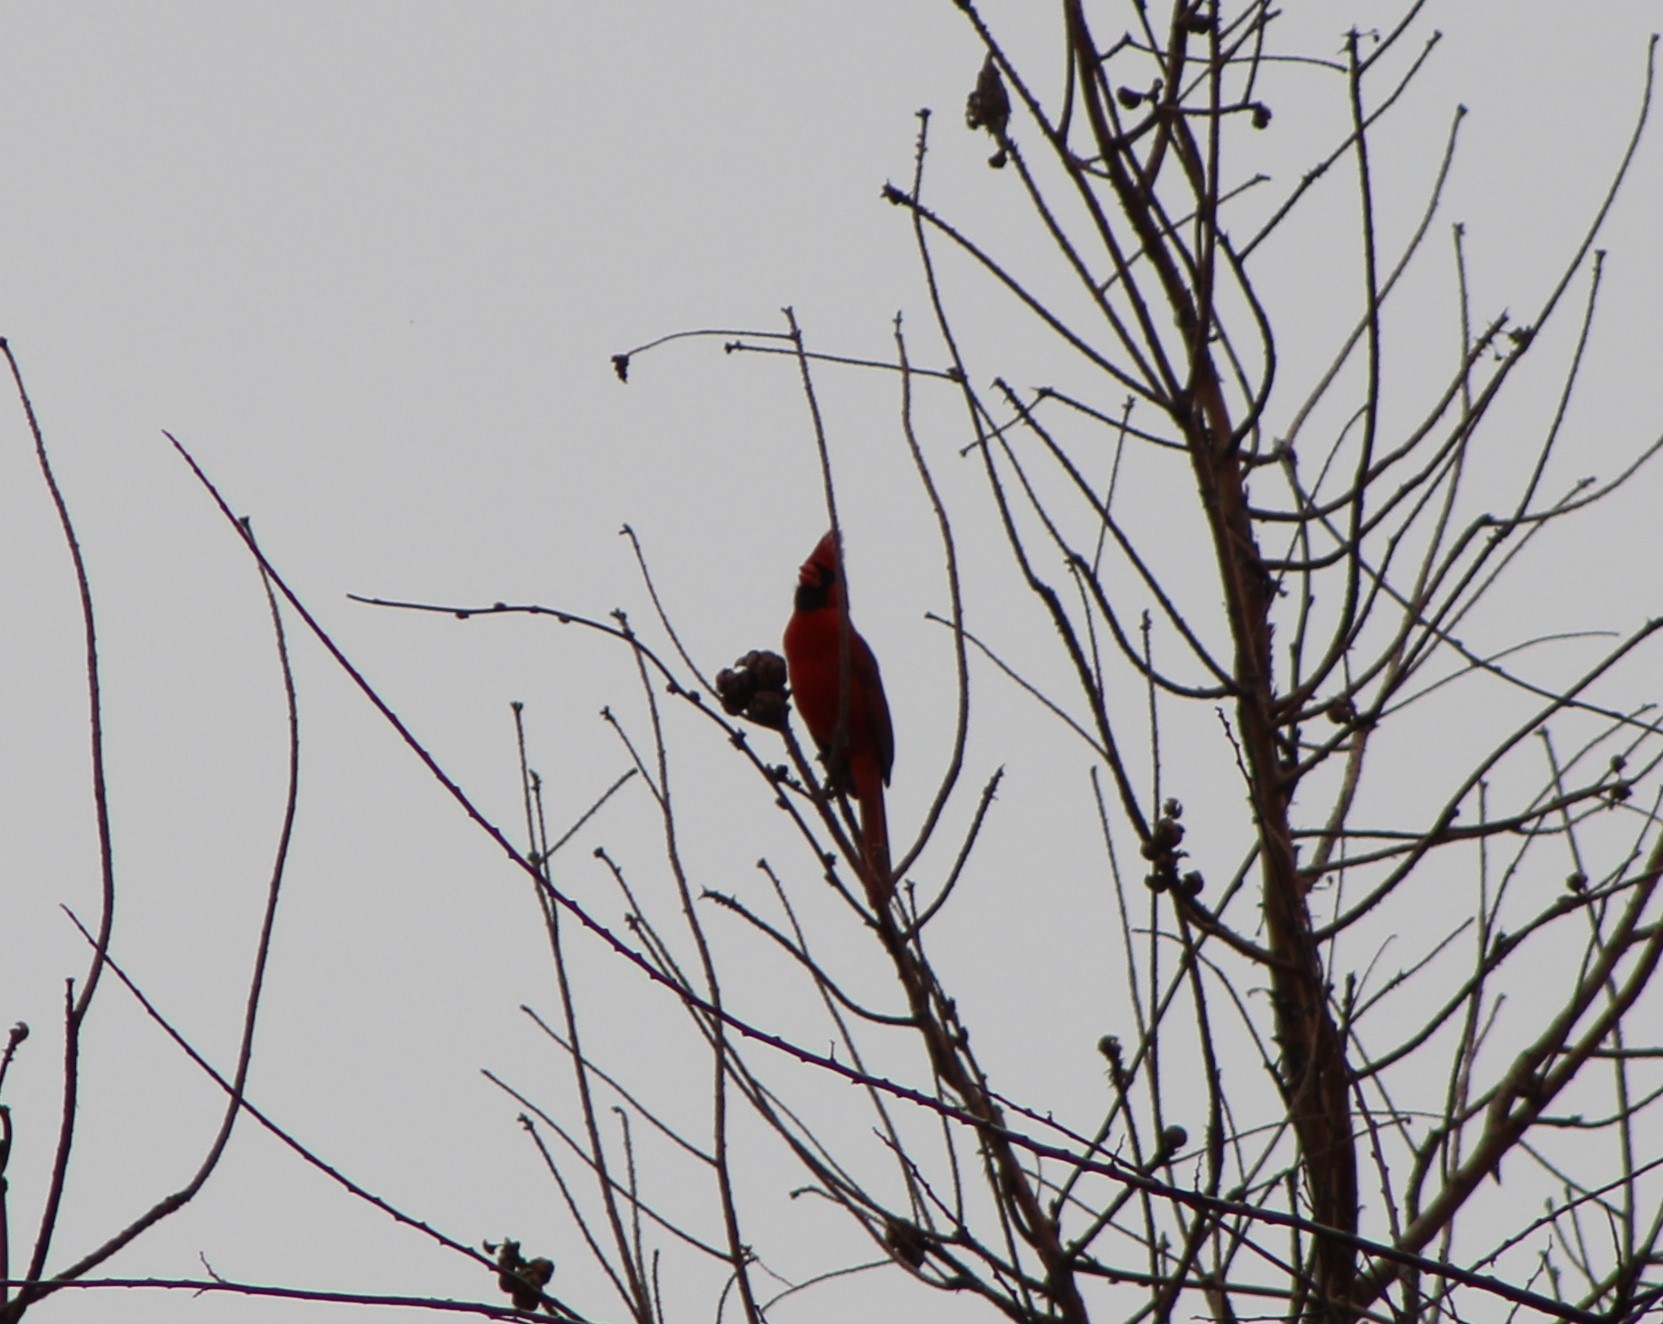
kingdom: Animalia
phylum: Chordata
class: Aves
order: Passeriformes
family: Cardinalidae
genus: Cardinalis
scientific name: Cardinalis cardinalis
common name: Northern cardinal
